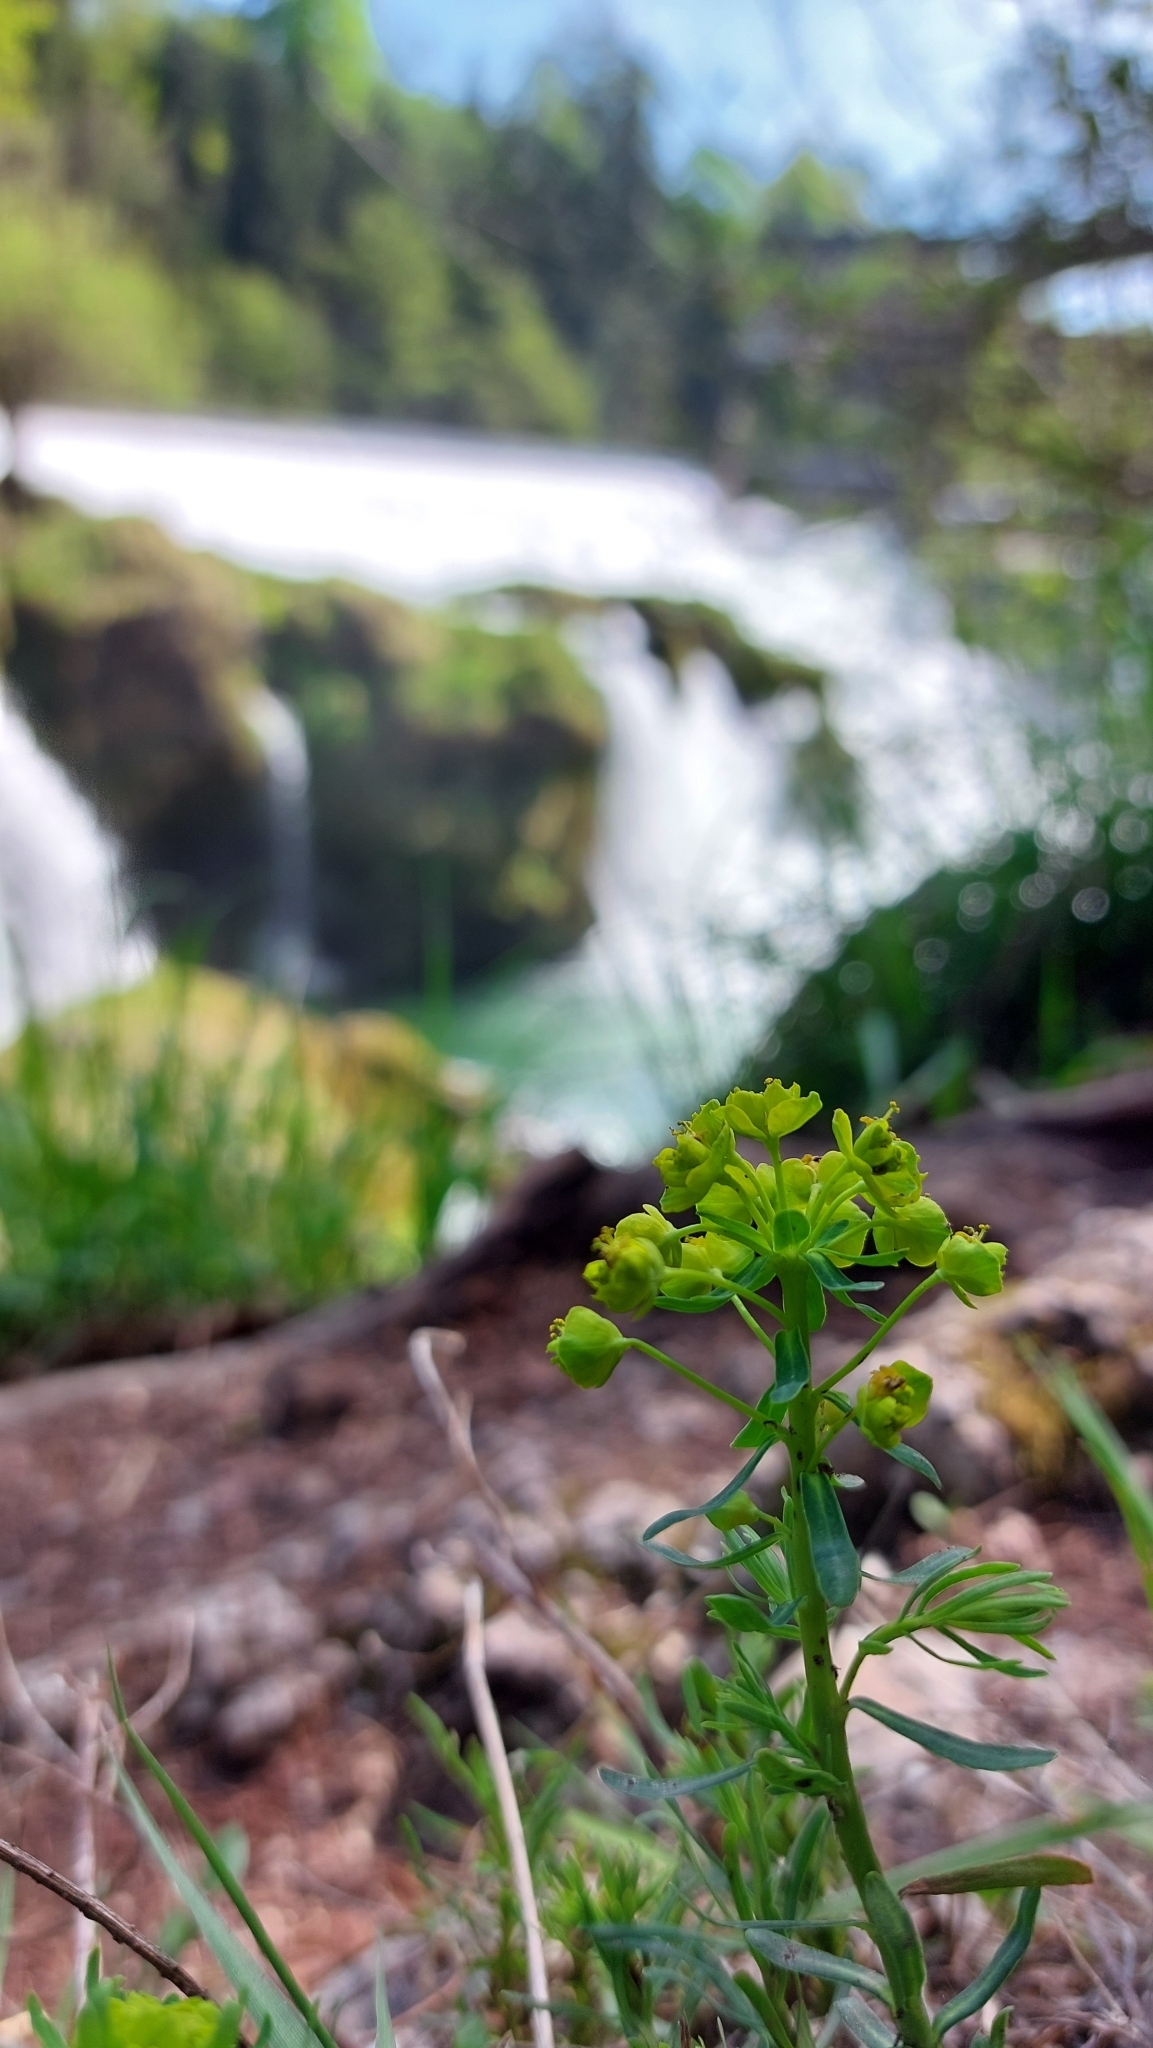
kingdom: Plantae
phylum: Tracheophyta
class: Magnoliopsida
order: Malpighiales
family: Euphorbiaceae
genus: Euphorbia
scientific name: Euphorbia cyparissias
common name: Cypress spurge
